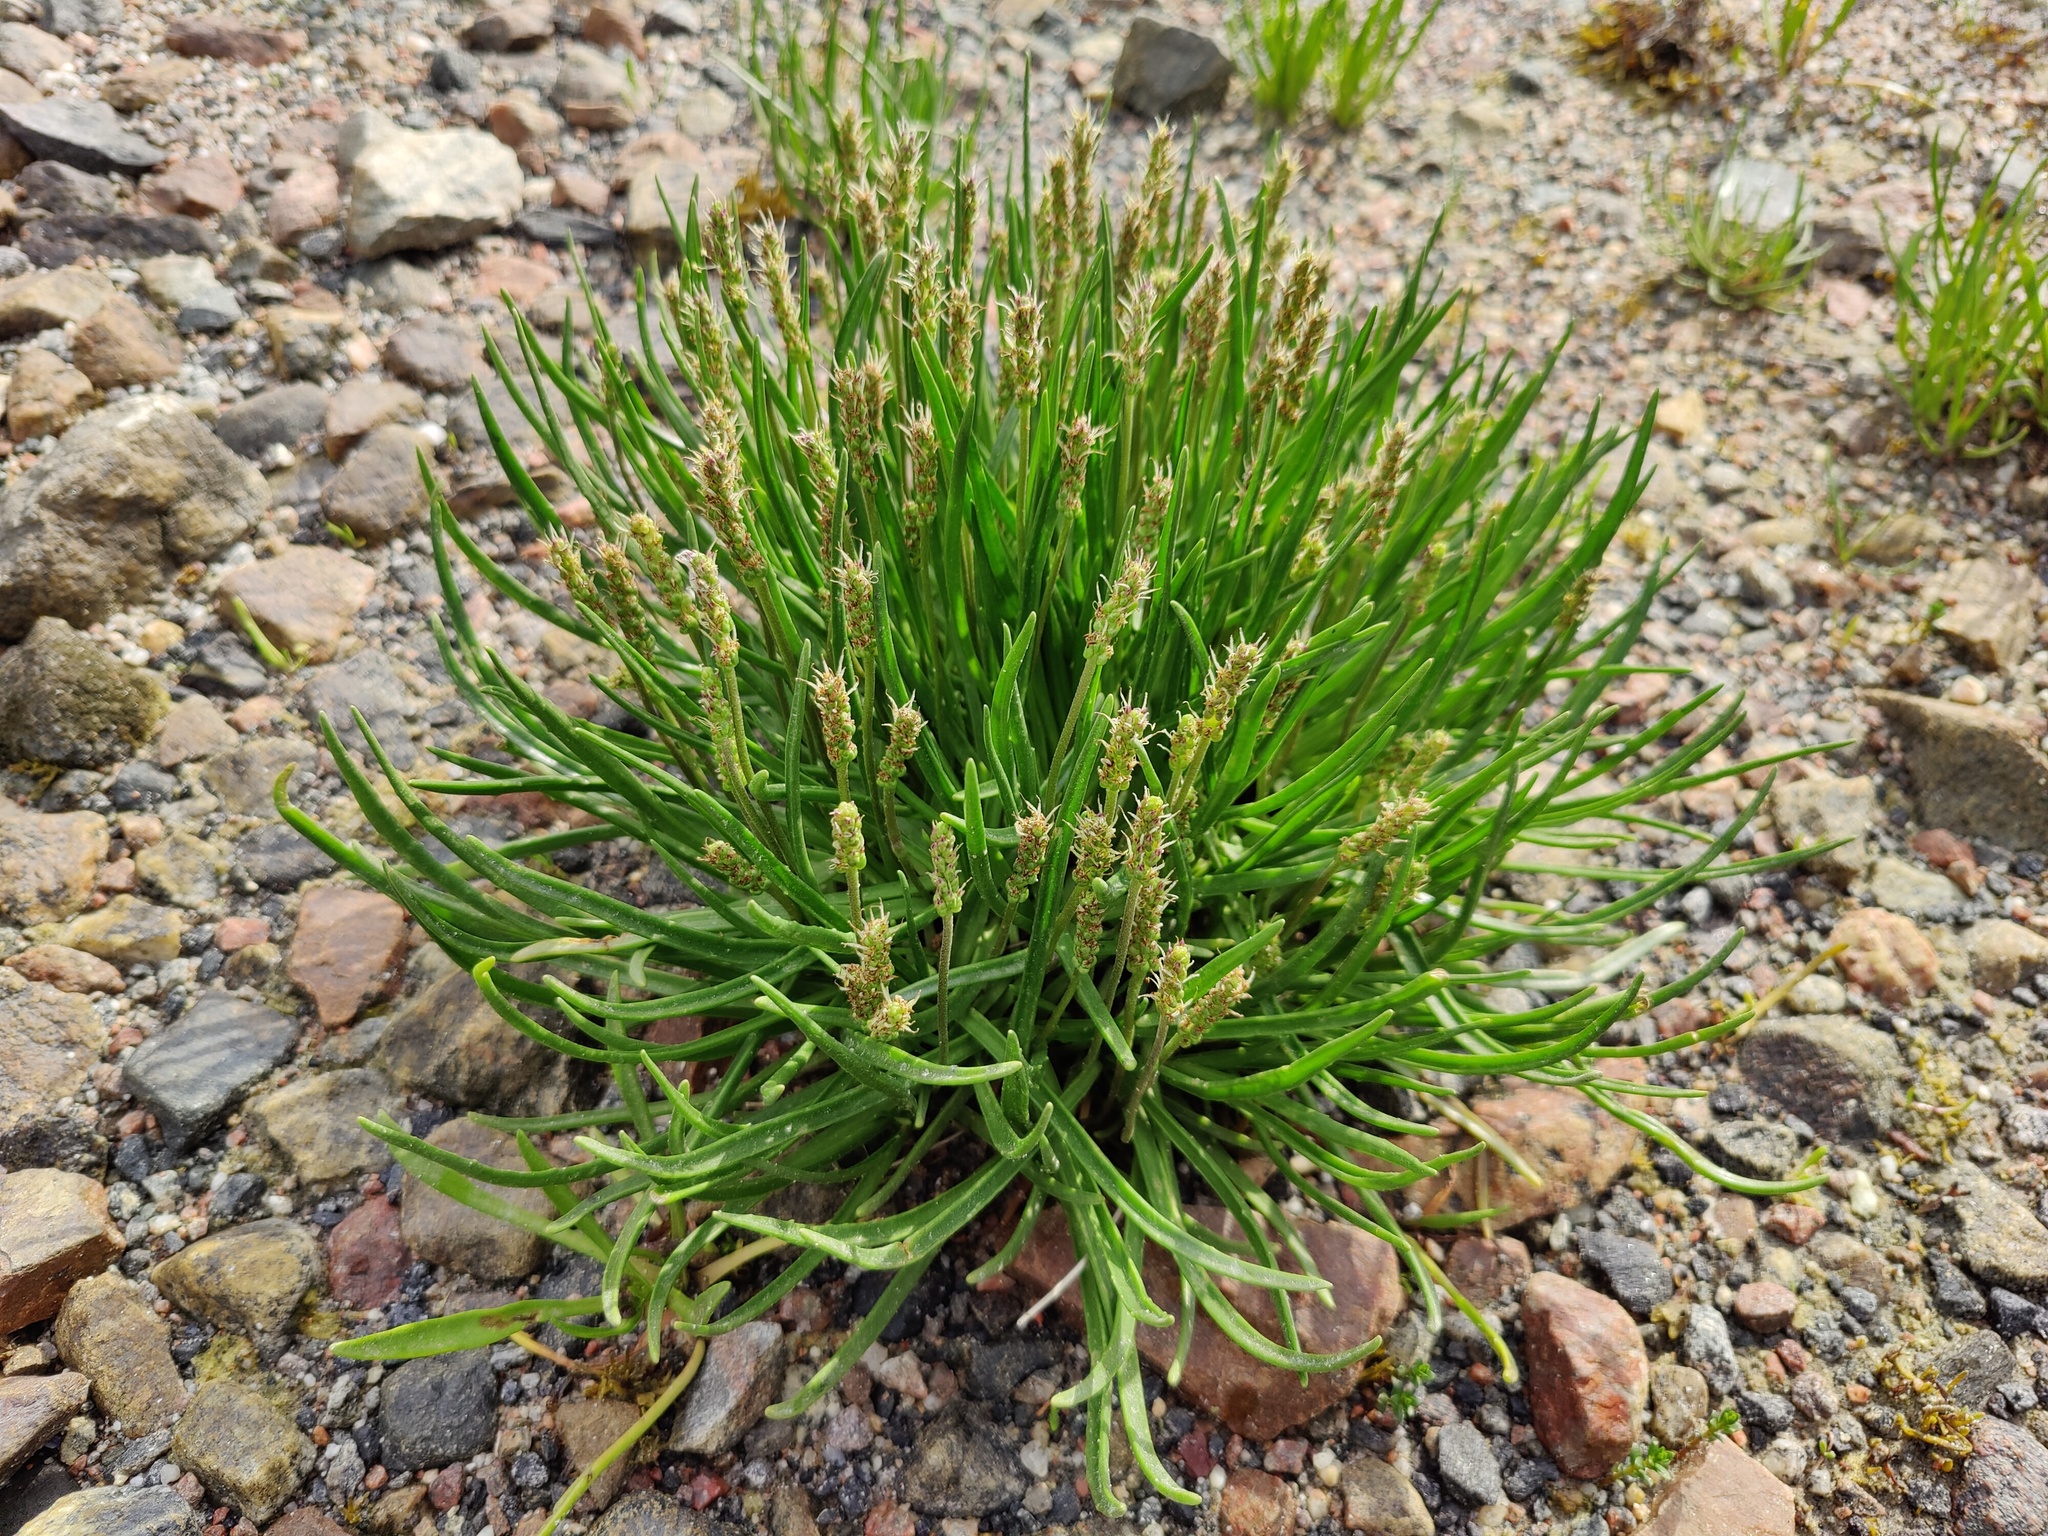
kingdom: Plantae
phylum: Tracheophyta
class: Magnoliopsida
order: Lamiales
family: Plantaginaceae
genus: Plantago
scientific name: Plantago maritima
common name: Sea plantain
